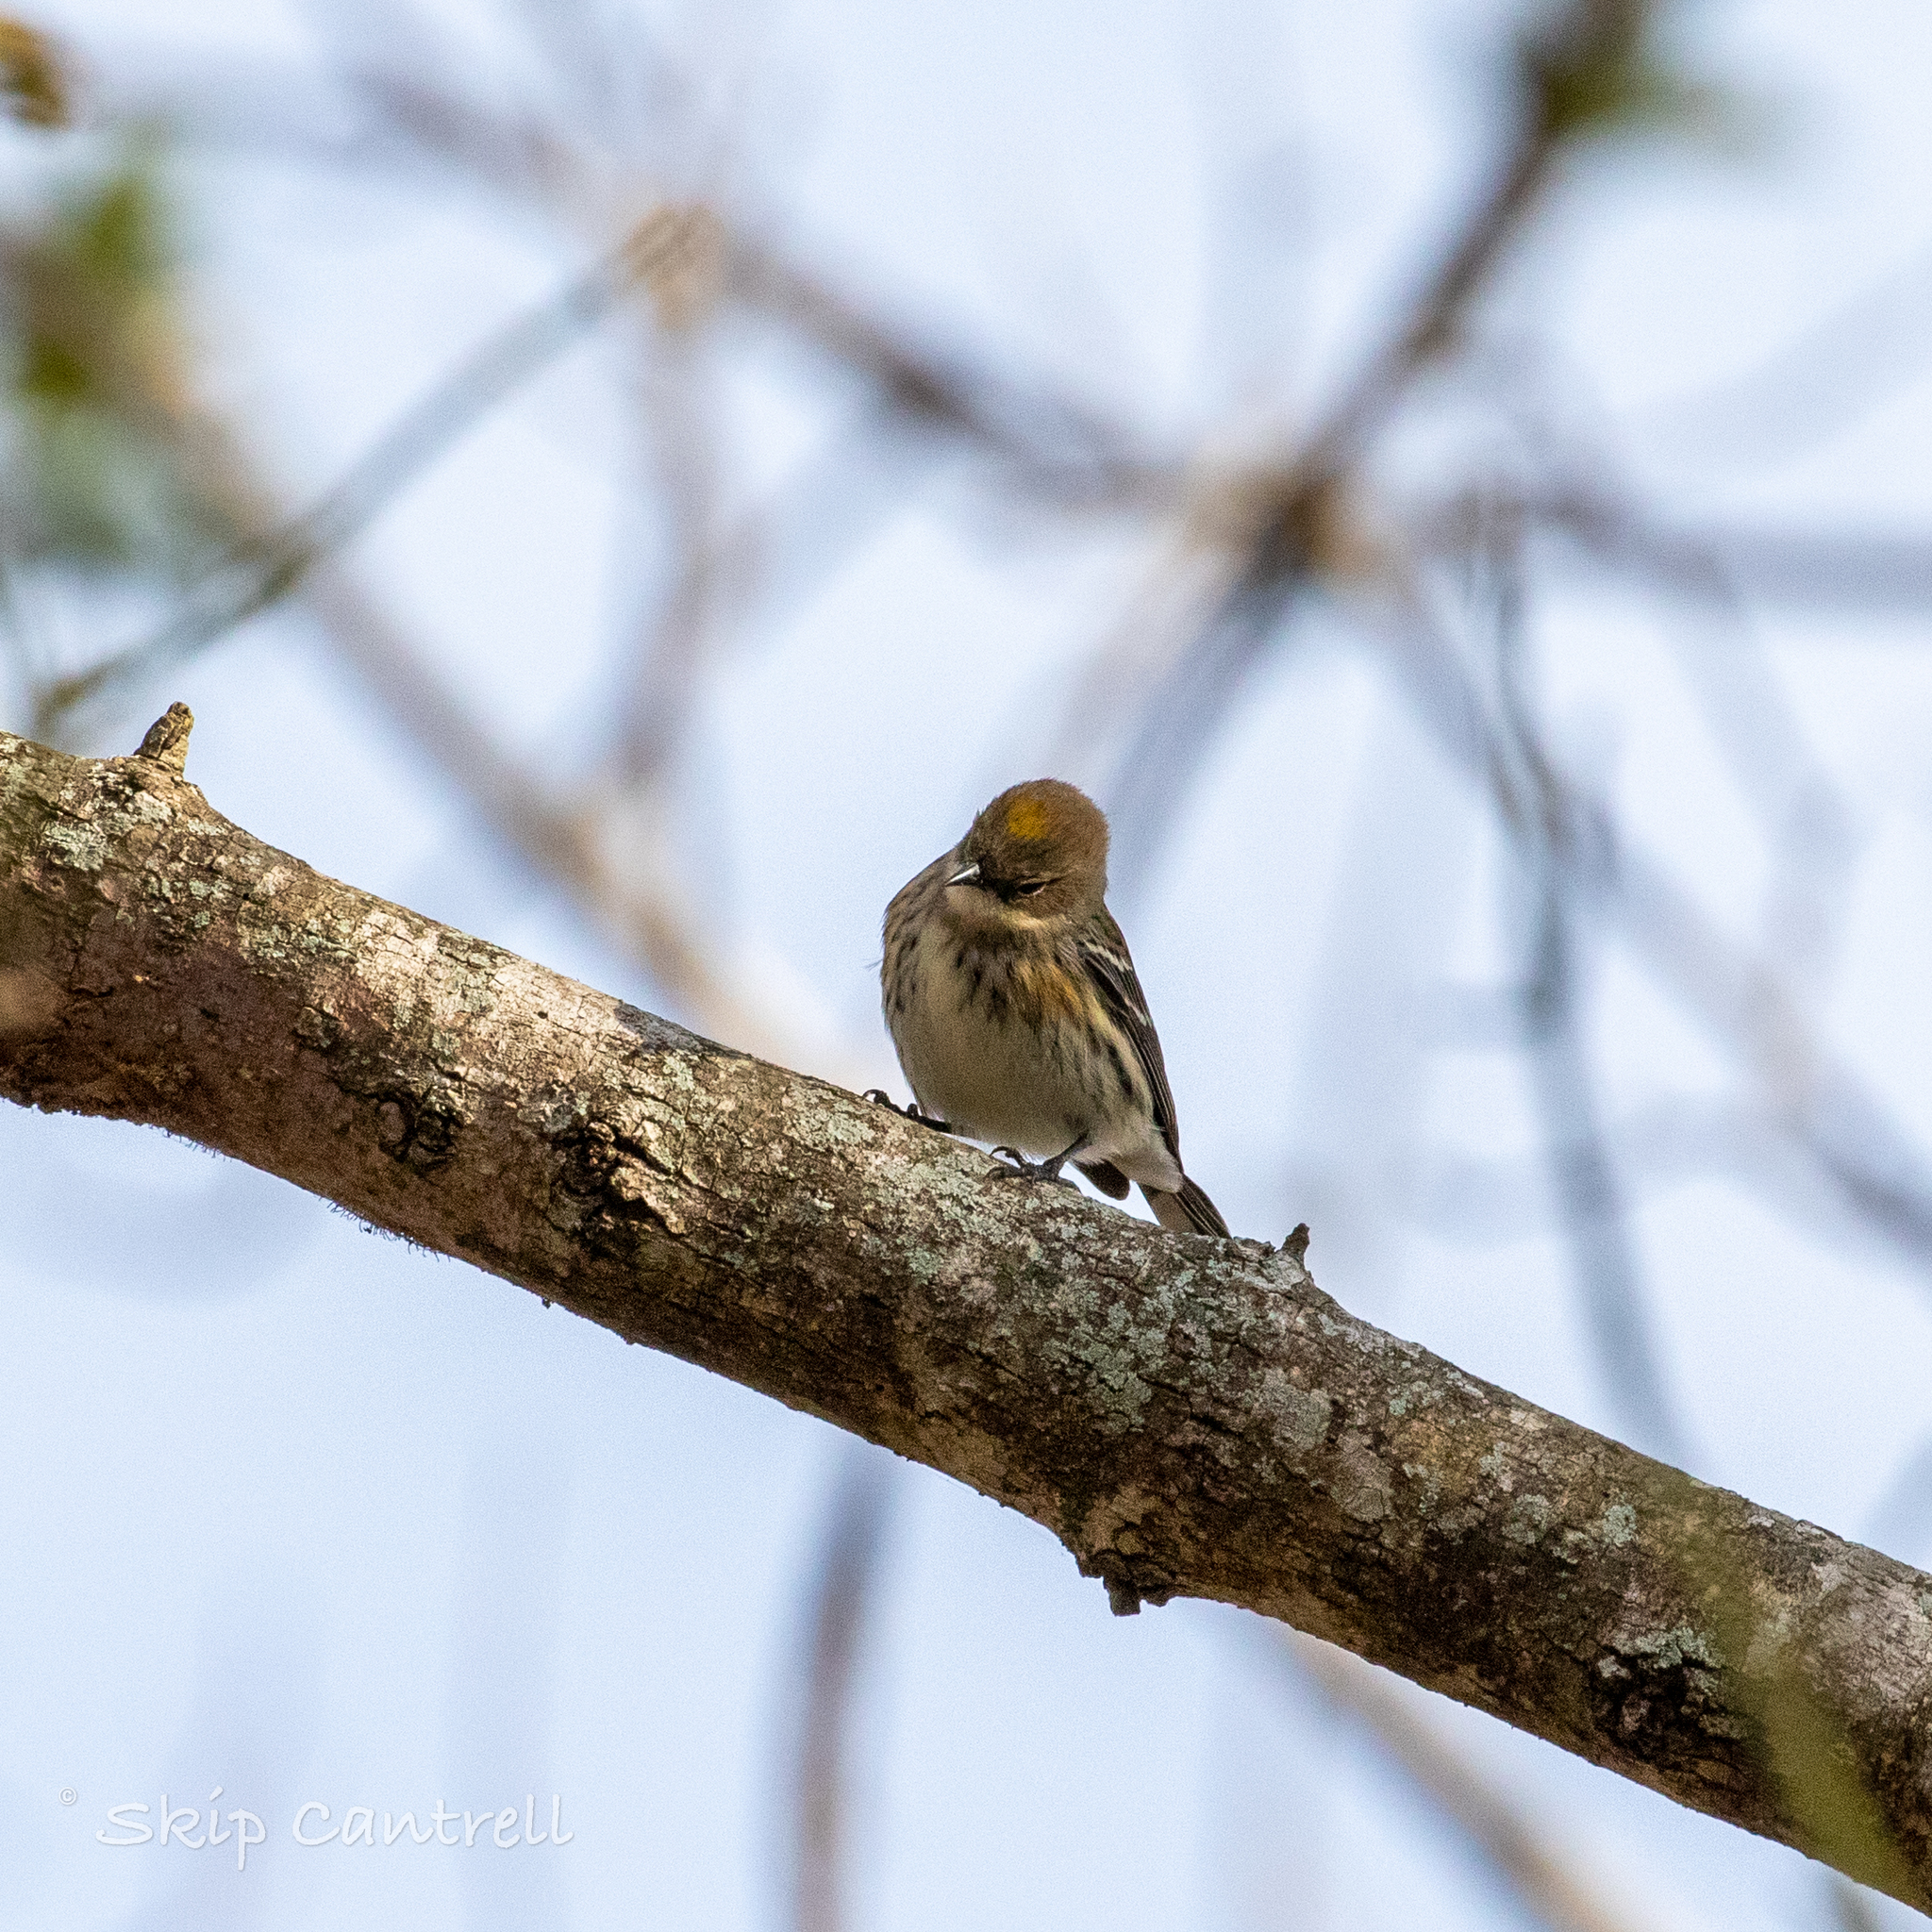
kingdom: Animalia
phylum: Chordata
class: Aves
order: Passeriformes
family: Parulidae
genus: Setophaga
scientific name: Setophaga coronata
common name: Myrtle warbler
